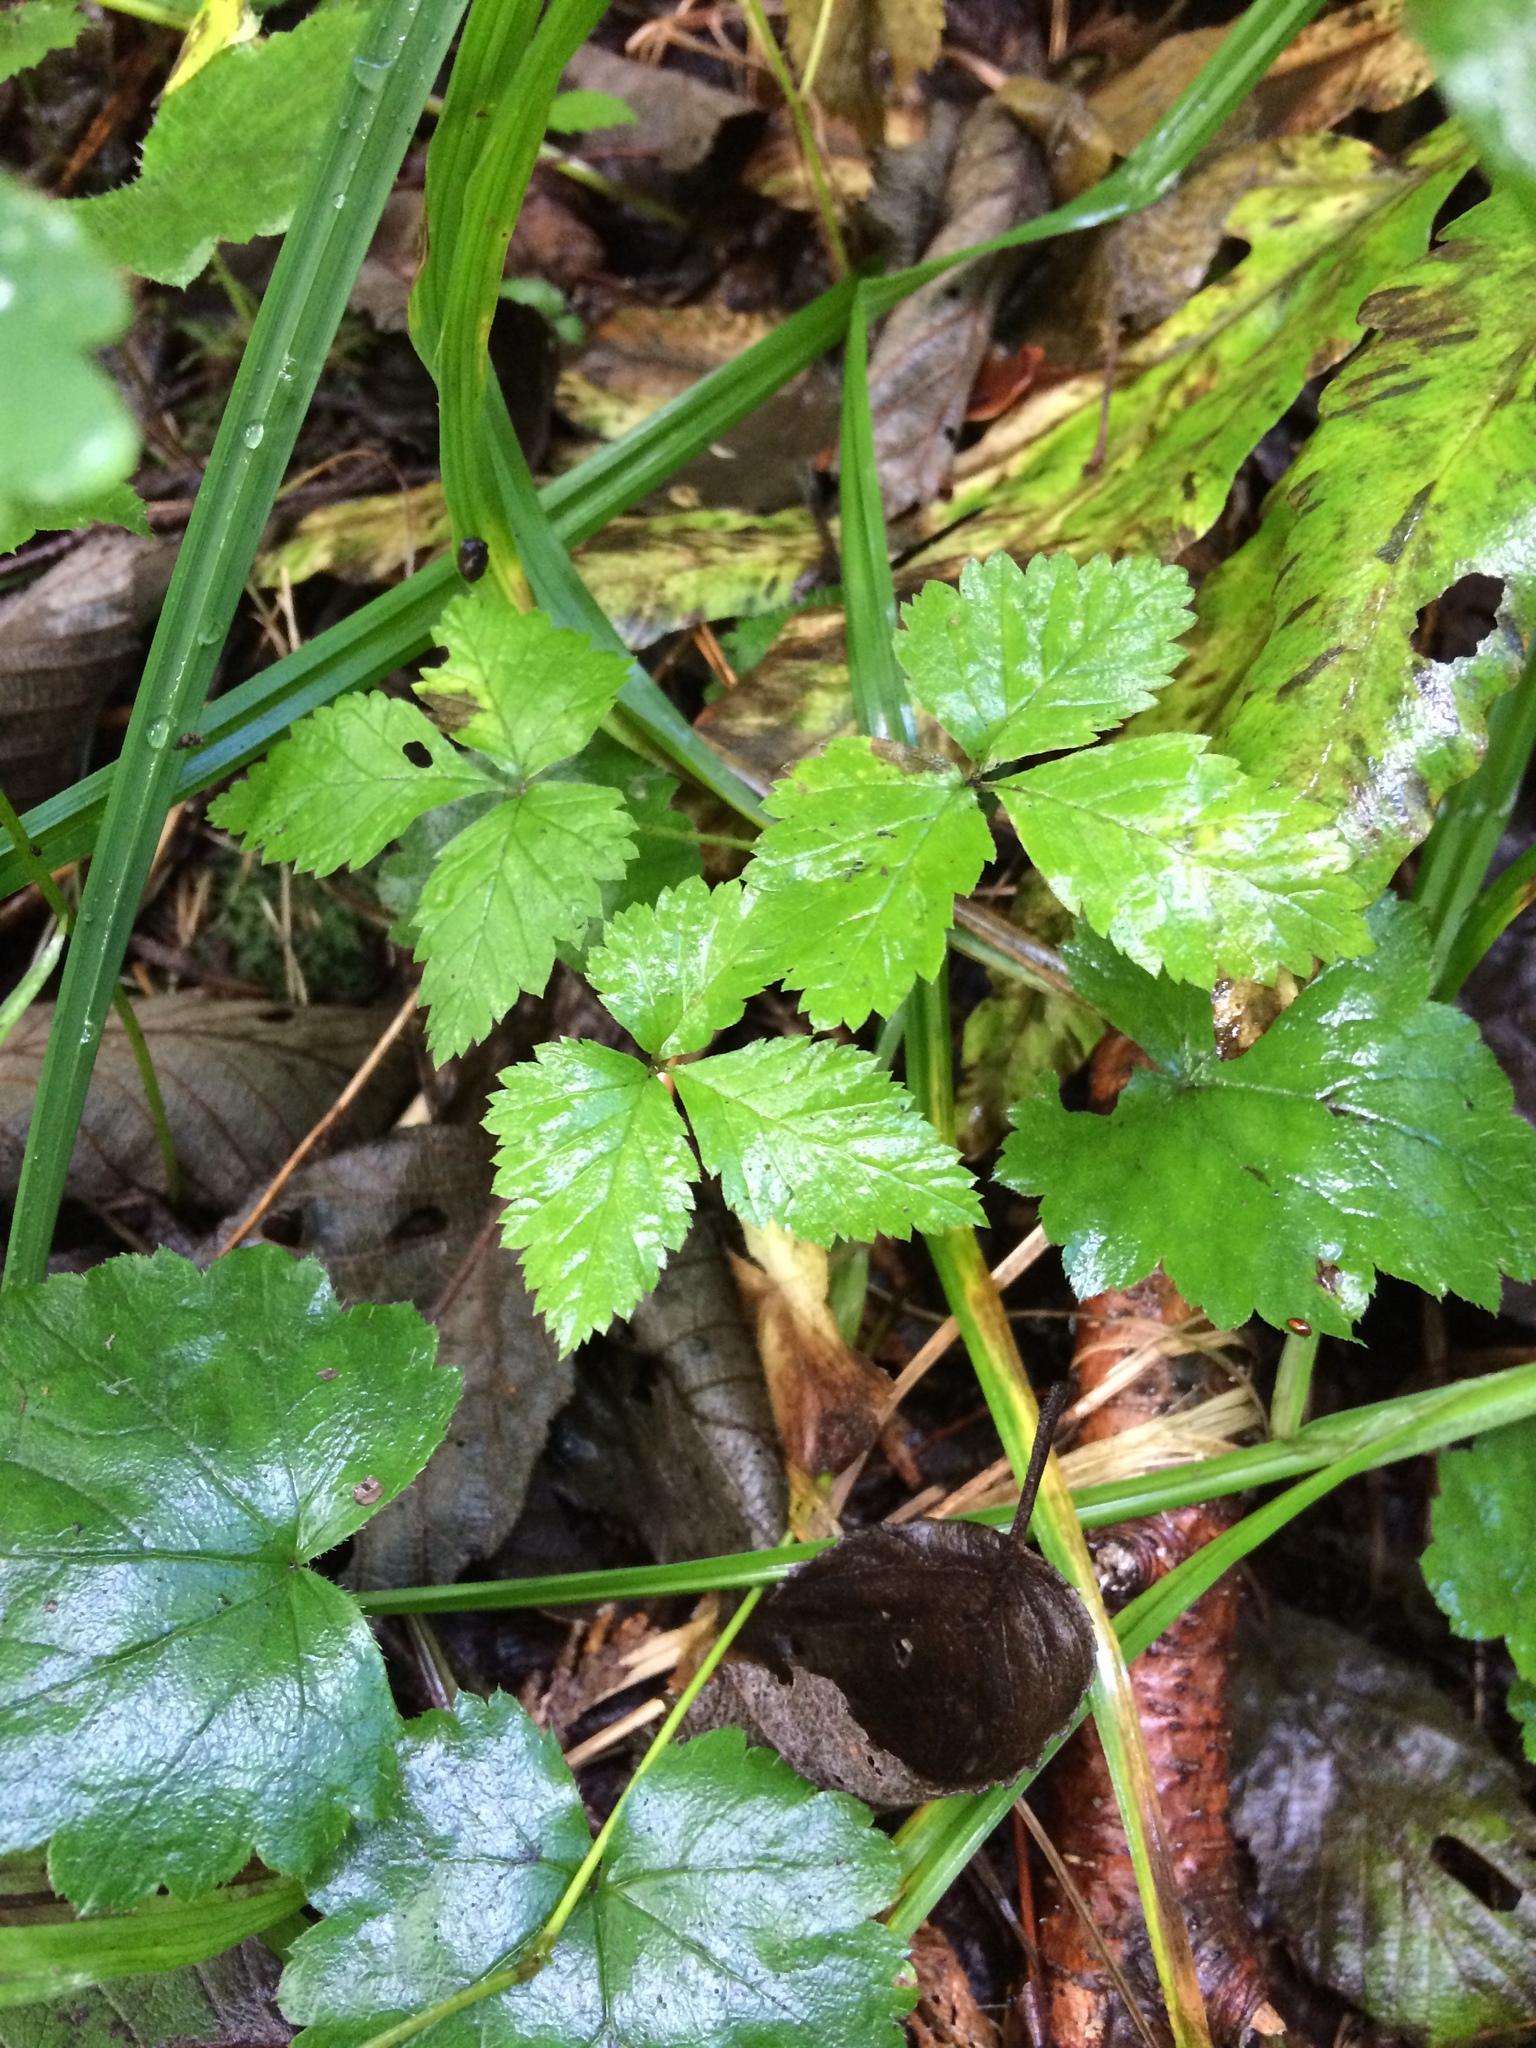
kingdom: Plantae
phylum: Tracheophyta
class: Magnoliopsida
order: Rosales
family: Rosaceae
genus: Rubus
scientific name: Rubus pubescens
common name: Dwarf raspberry
